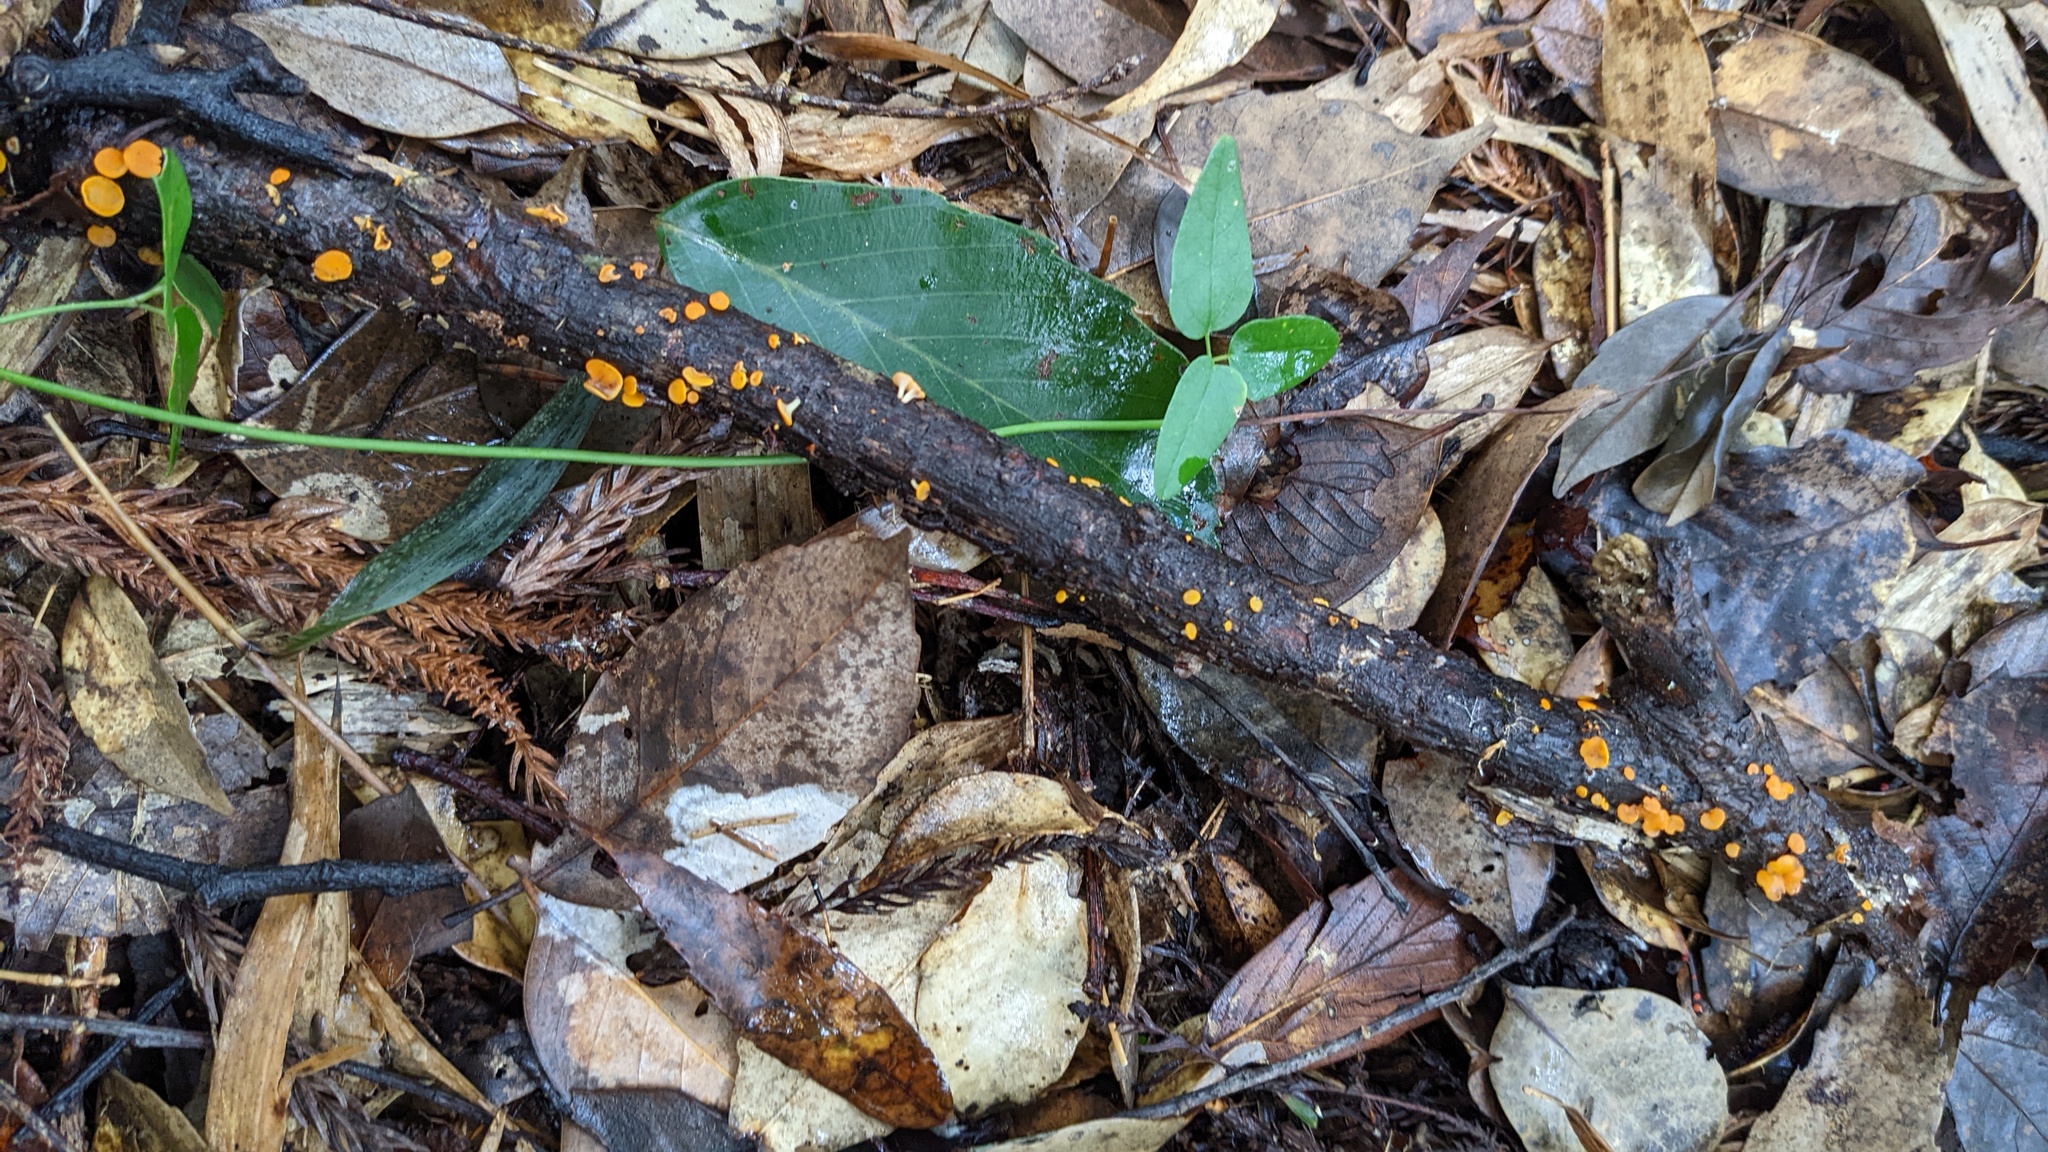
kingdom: Fungi
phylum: Ascomycota
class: Leotiomycetes
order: Helotiales
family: Helotiaceae
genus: Dicephalospora
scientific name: Dicephalospora rufocornea
